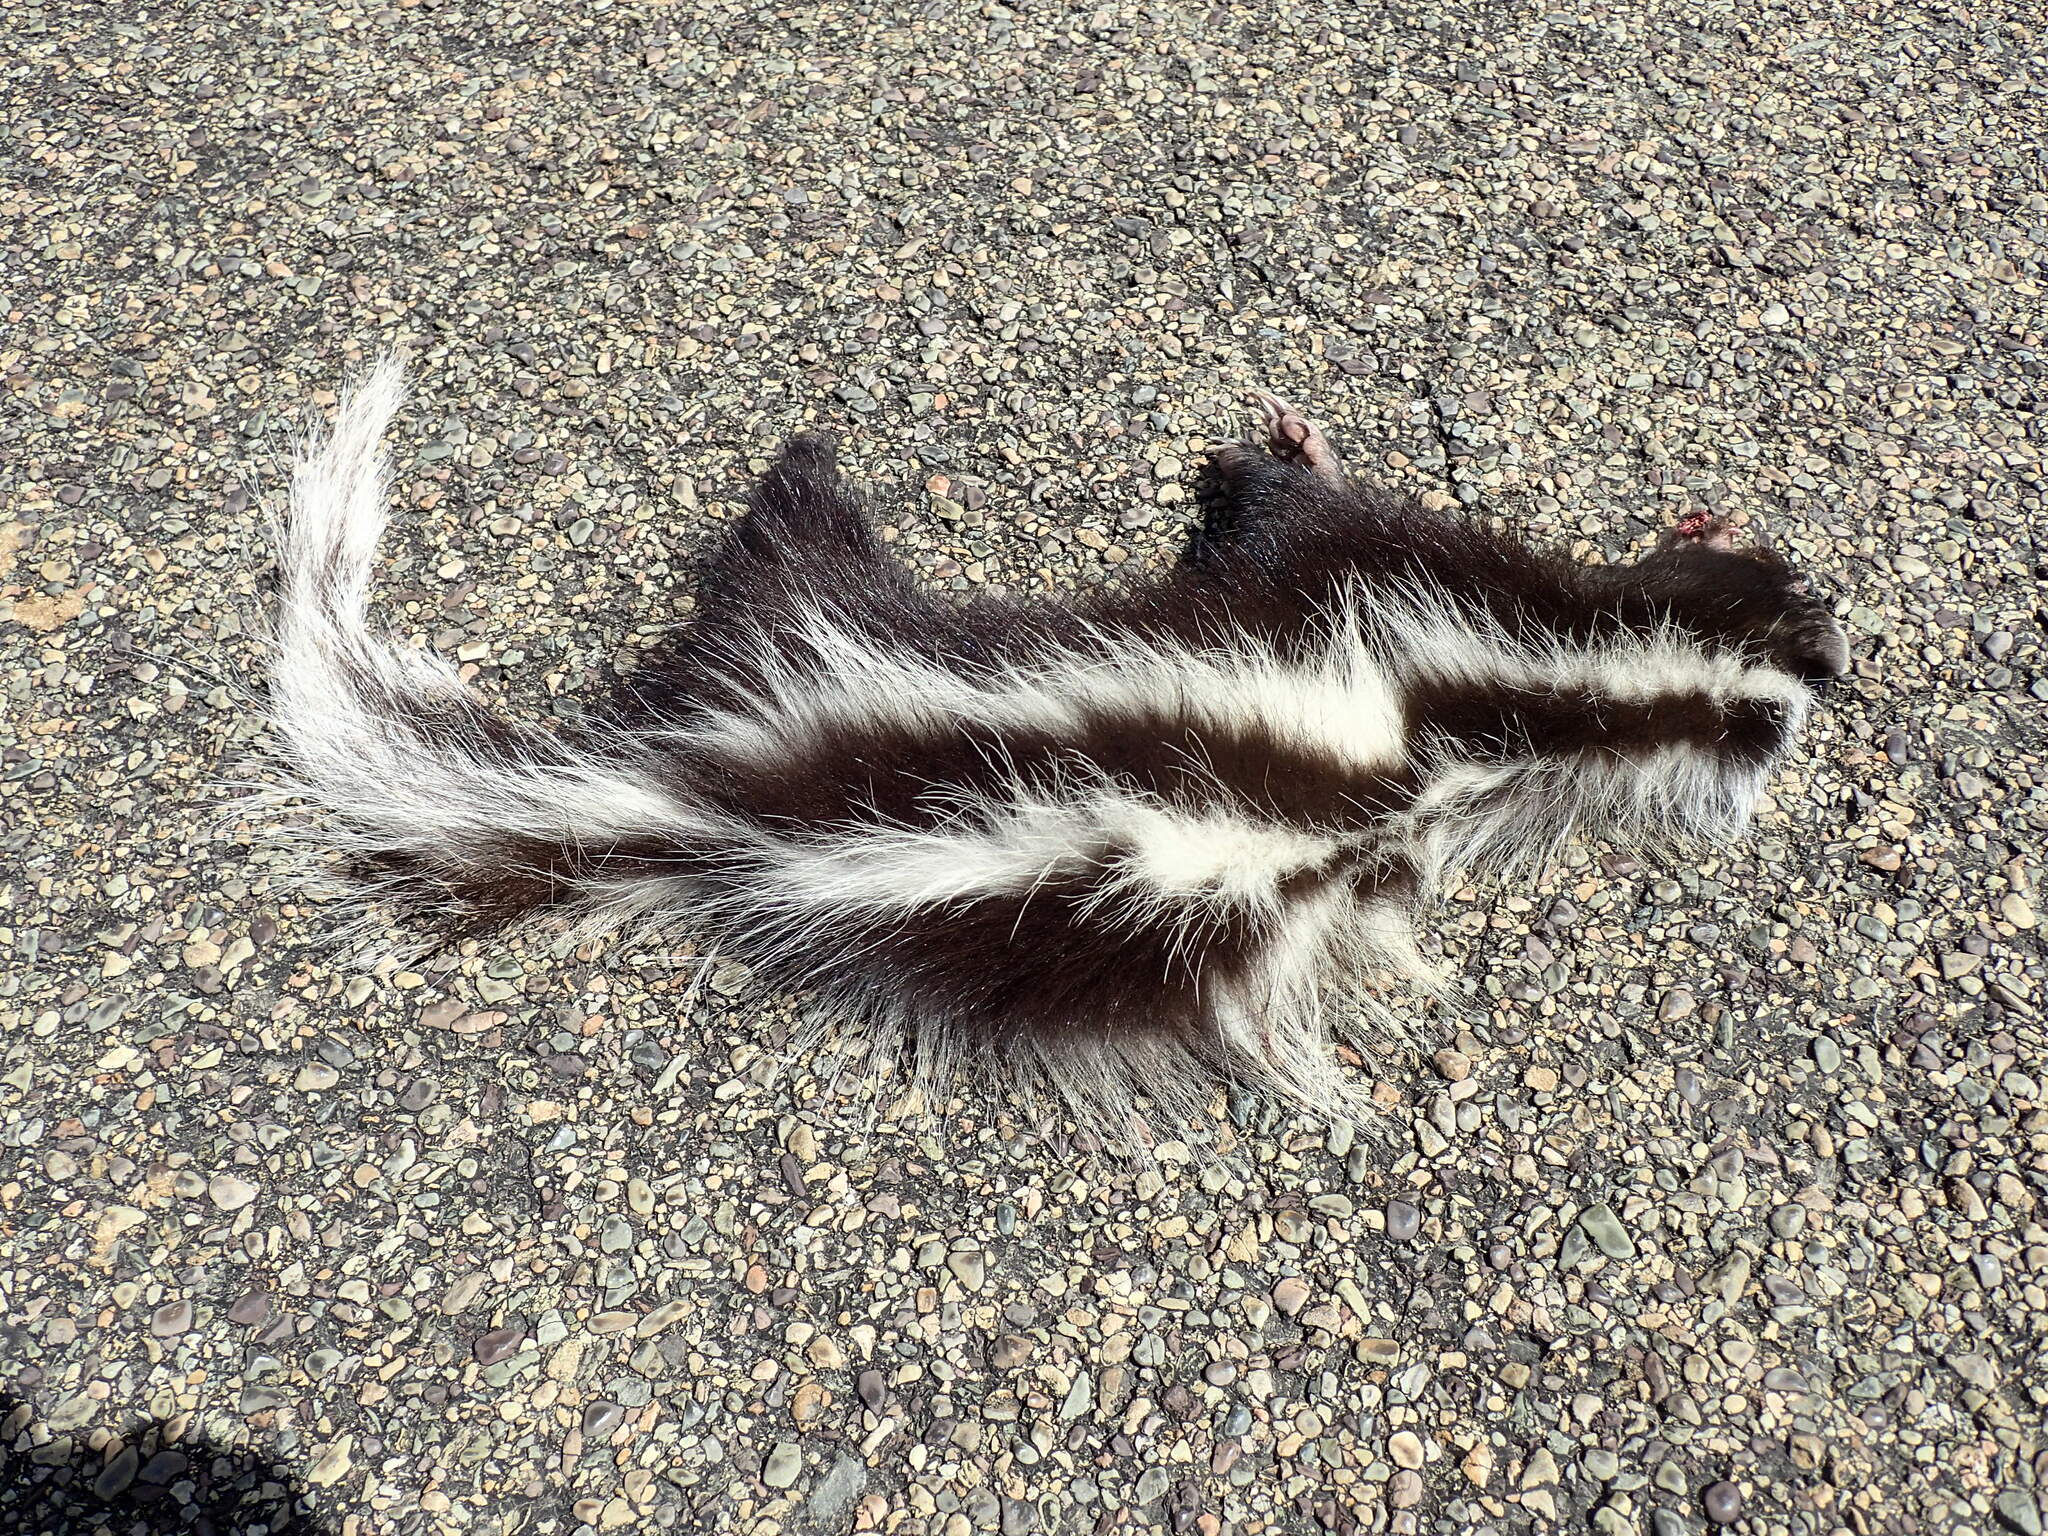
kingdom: Animalia
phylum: Chordata
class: Mammalia
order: Carnivora
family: Mustelidae
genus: Ictonyx
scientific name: Ictonyx striatus
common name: Striped polecat
